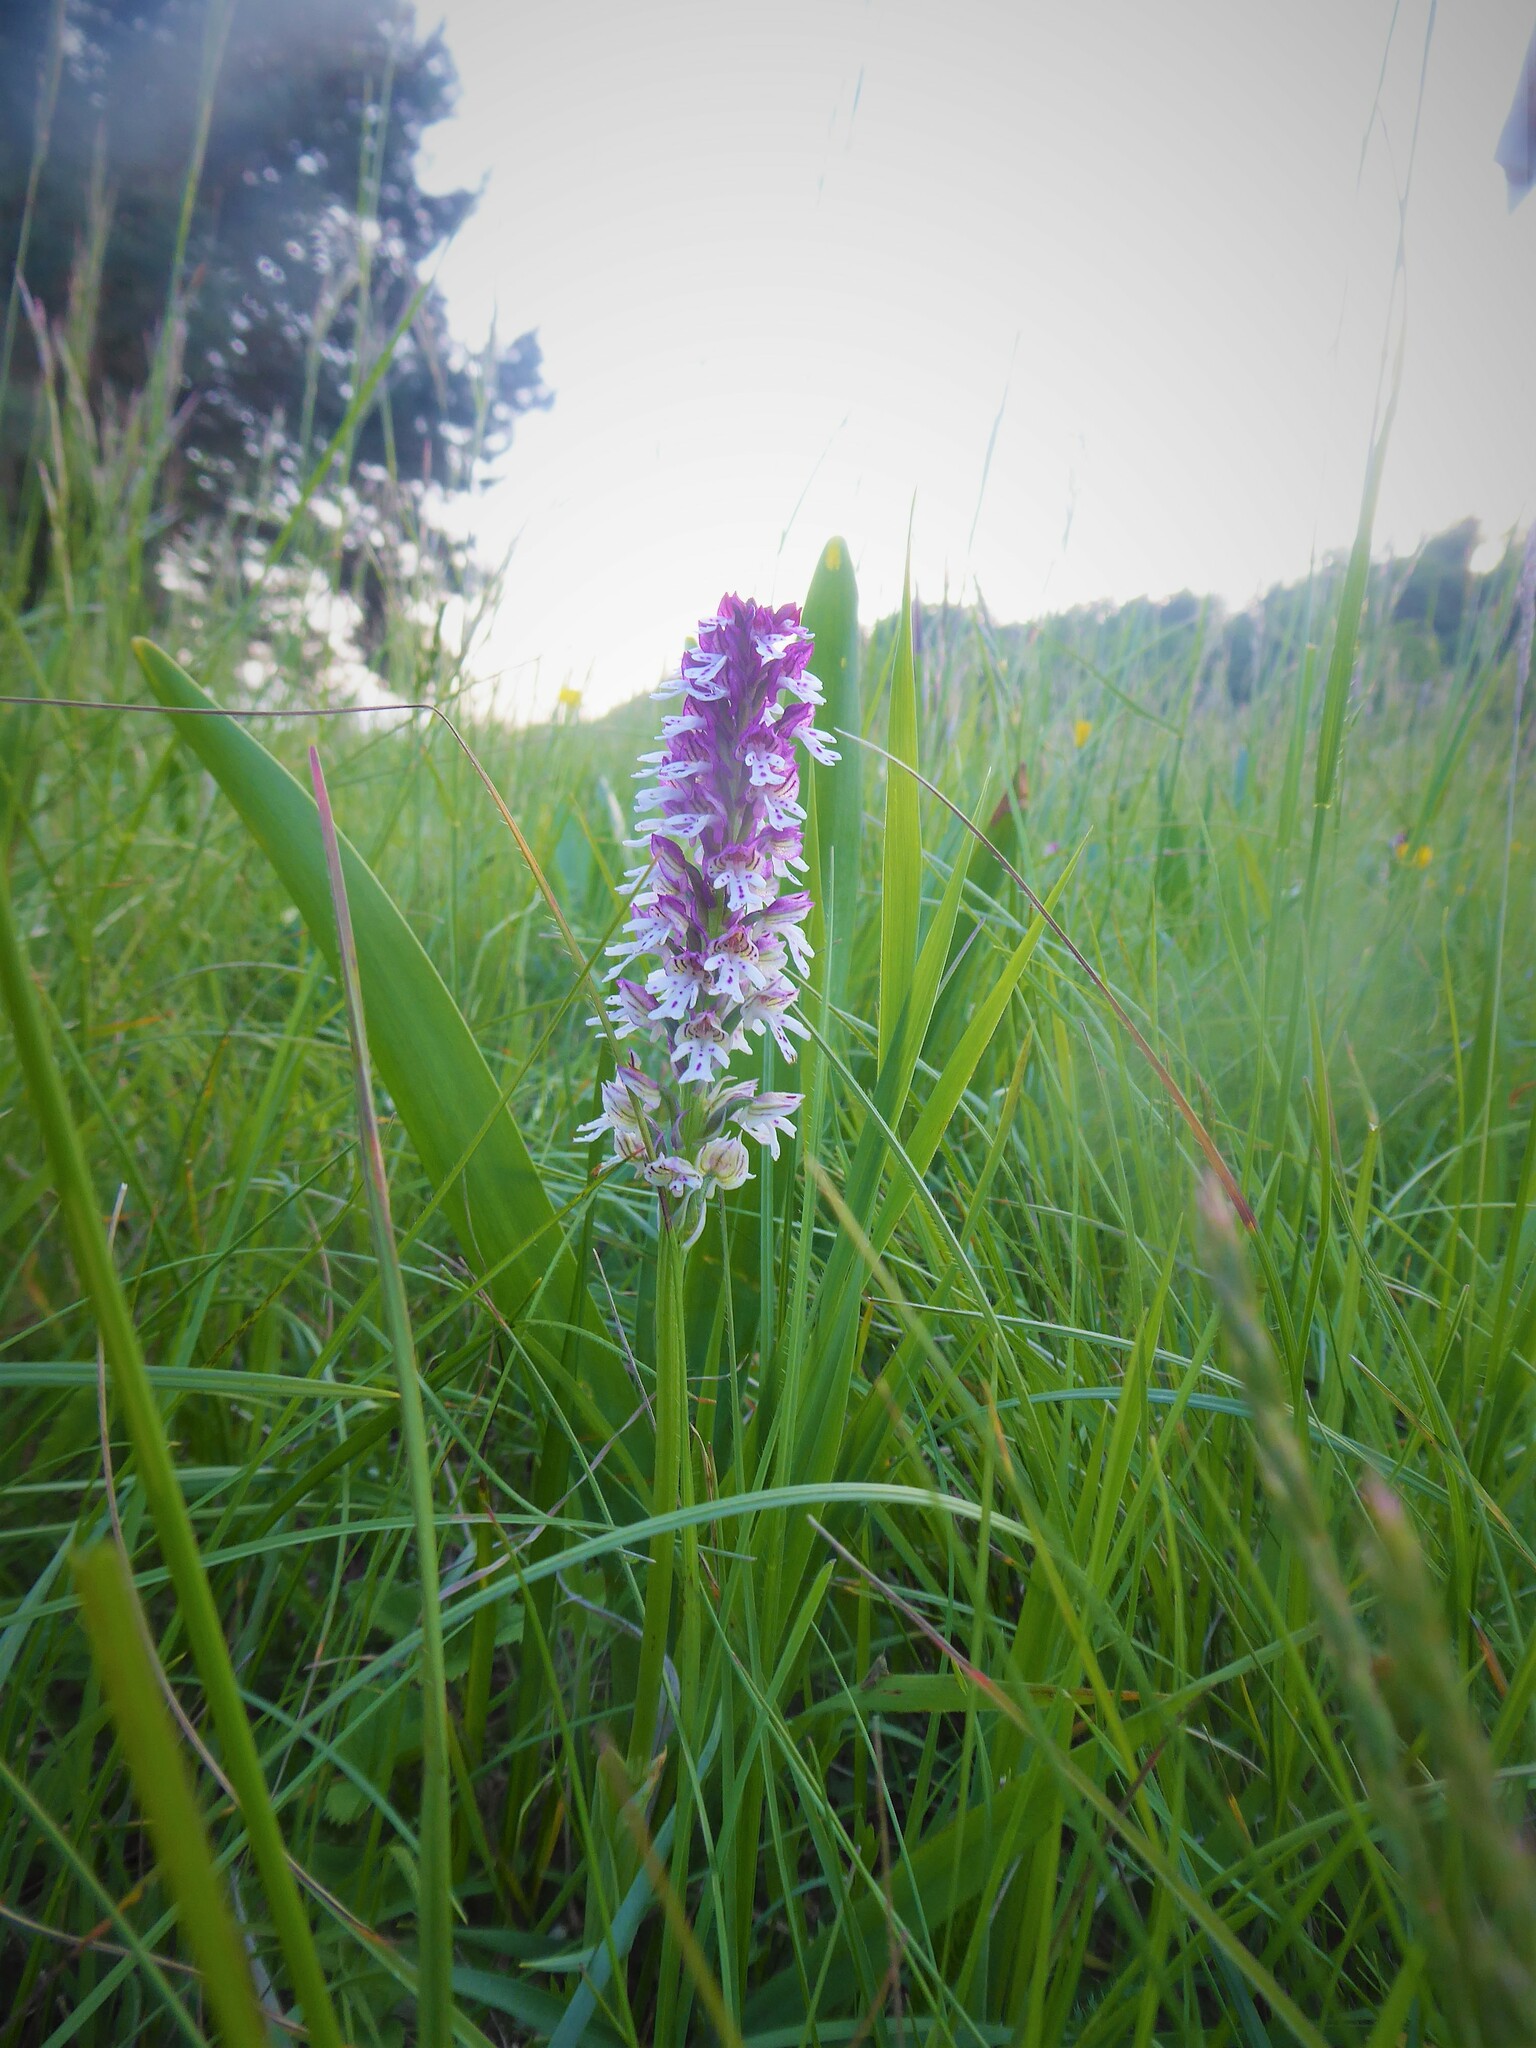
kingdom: Plantae
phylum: Tracheophyta
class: Liliopsida
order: Asparagales
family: Orchidaceae
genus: Neotinea
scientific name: Neotinea ustulata
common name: Burnt orchid
